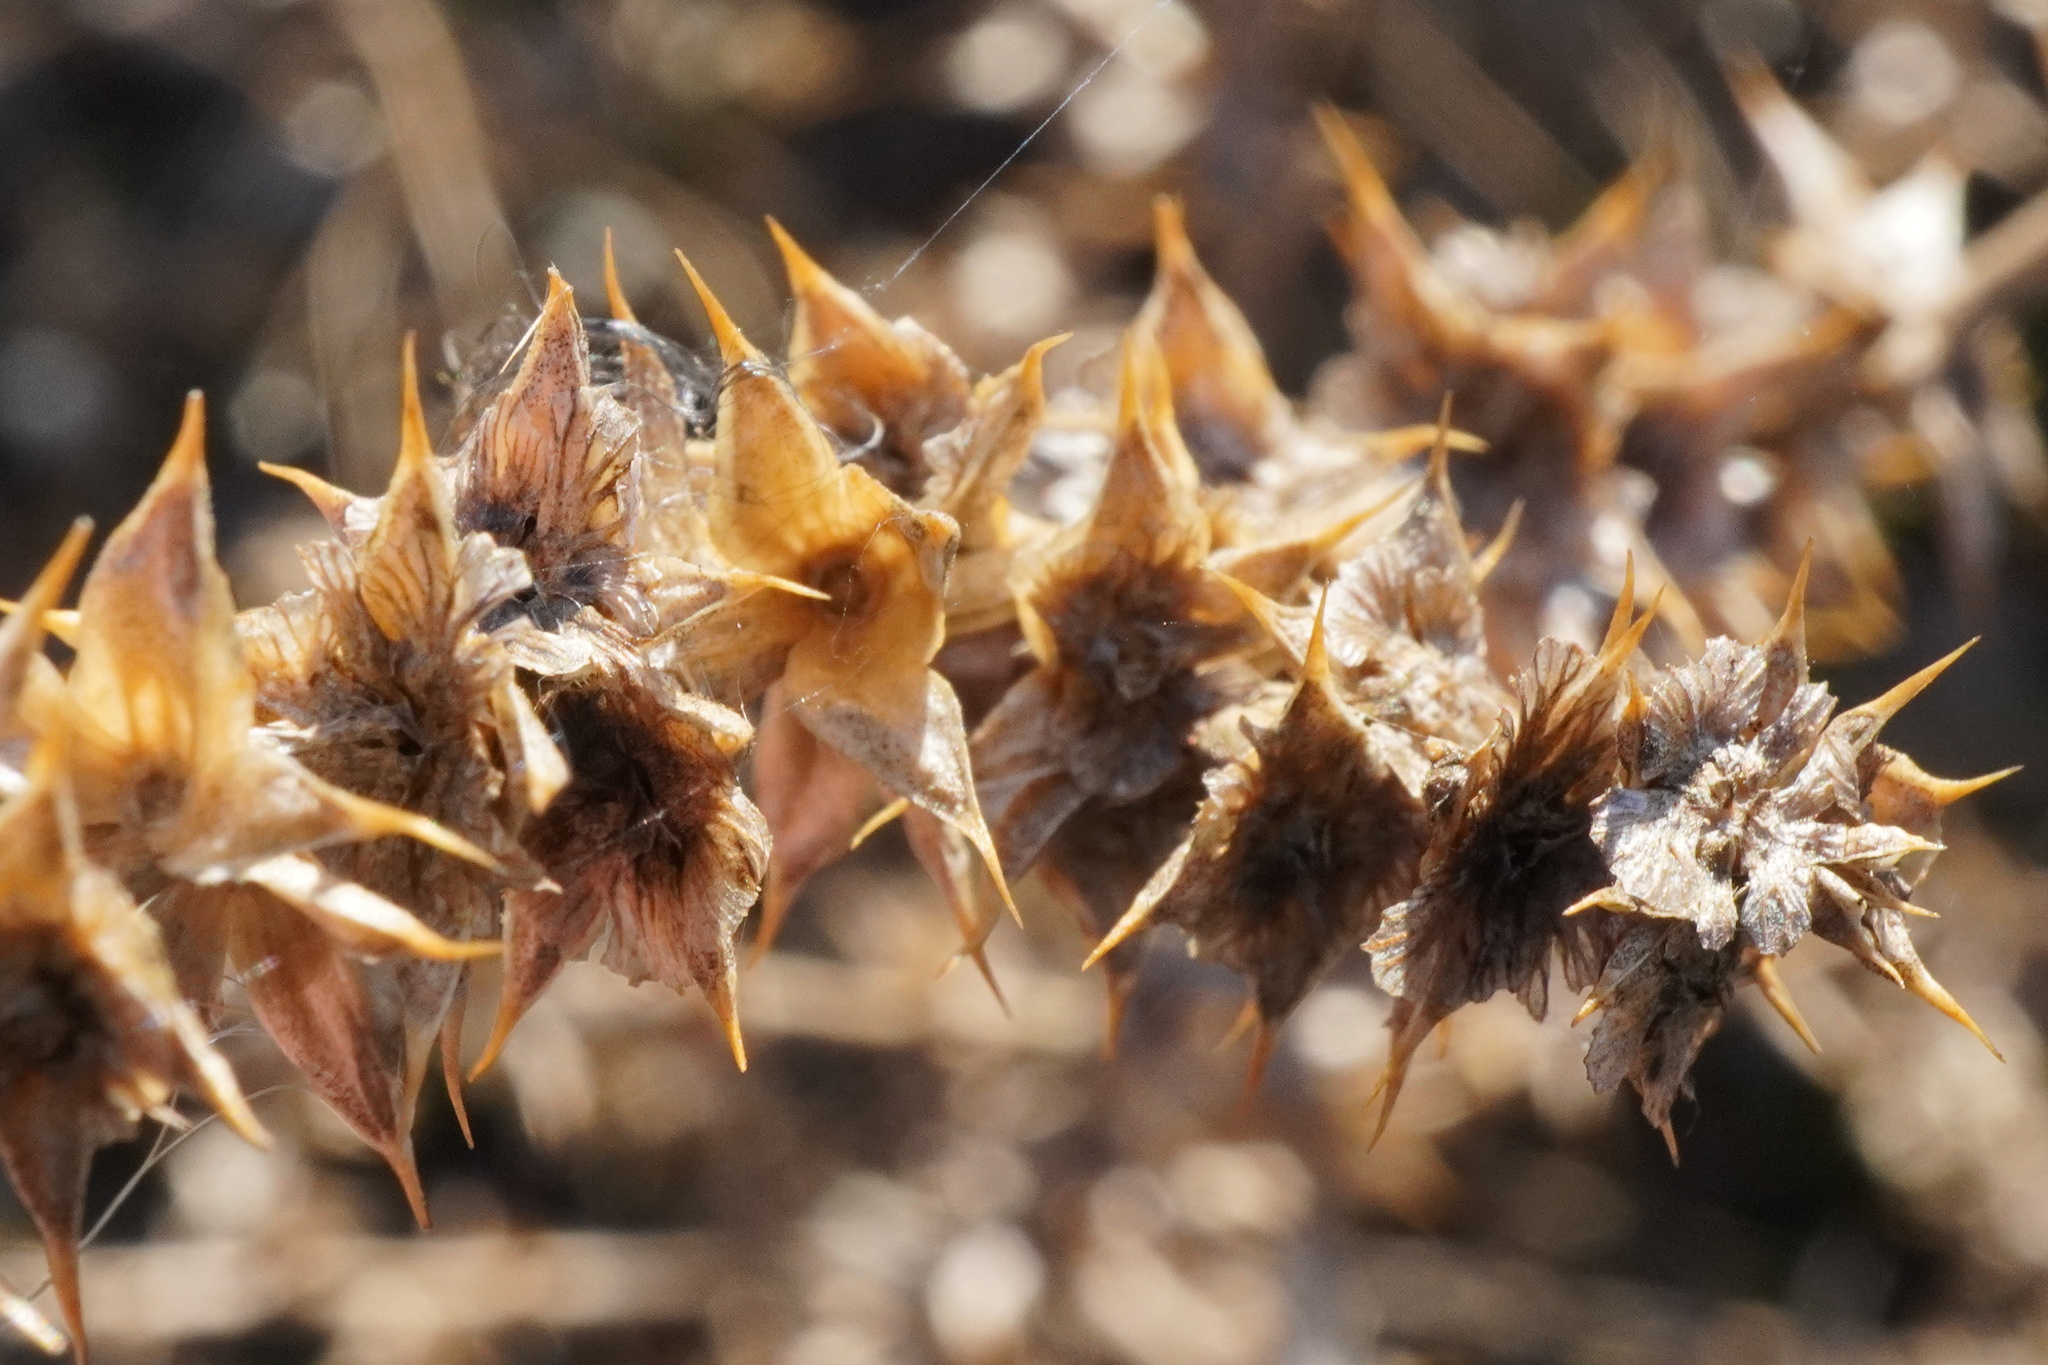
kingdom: Plantae
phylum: Tracheophyta
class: Magnoliopsida
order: Caryophyllales
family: Amaranthaceae
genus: Salsola
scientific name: Salsola tragus
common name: Prickly russian thistle
